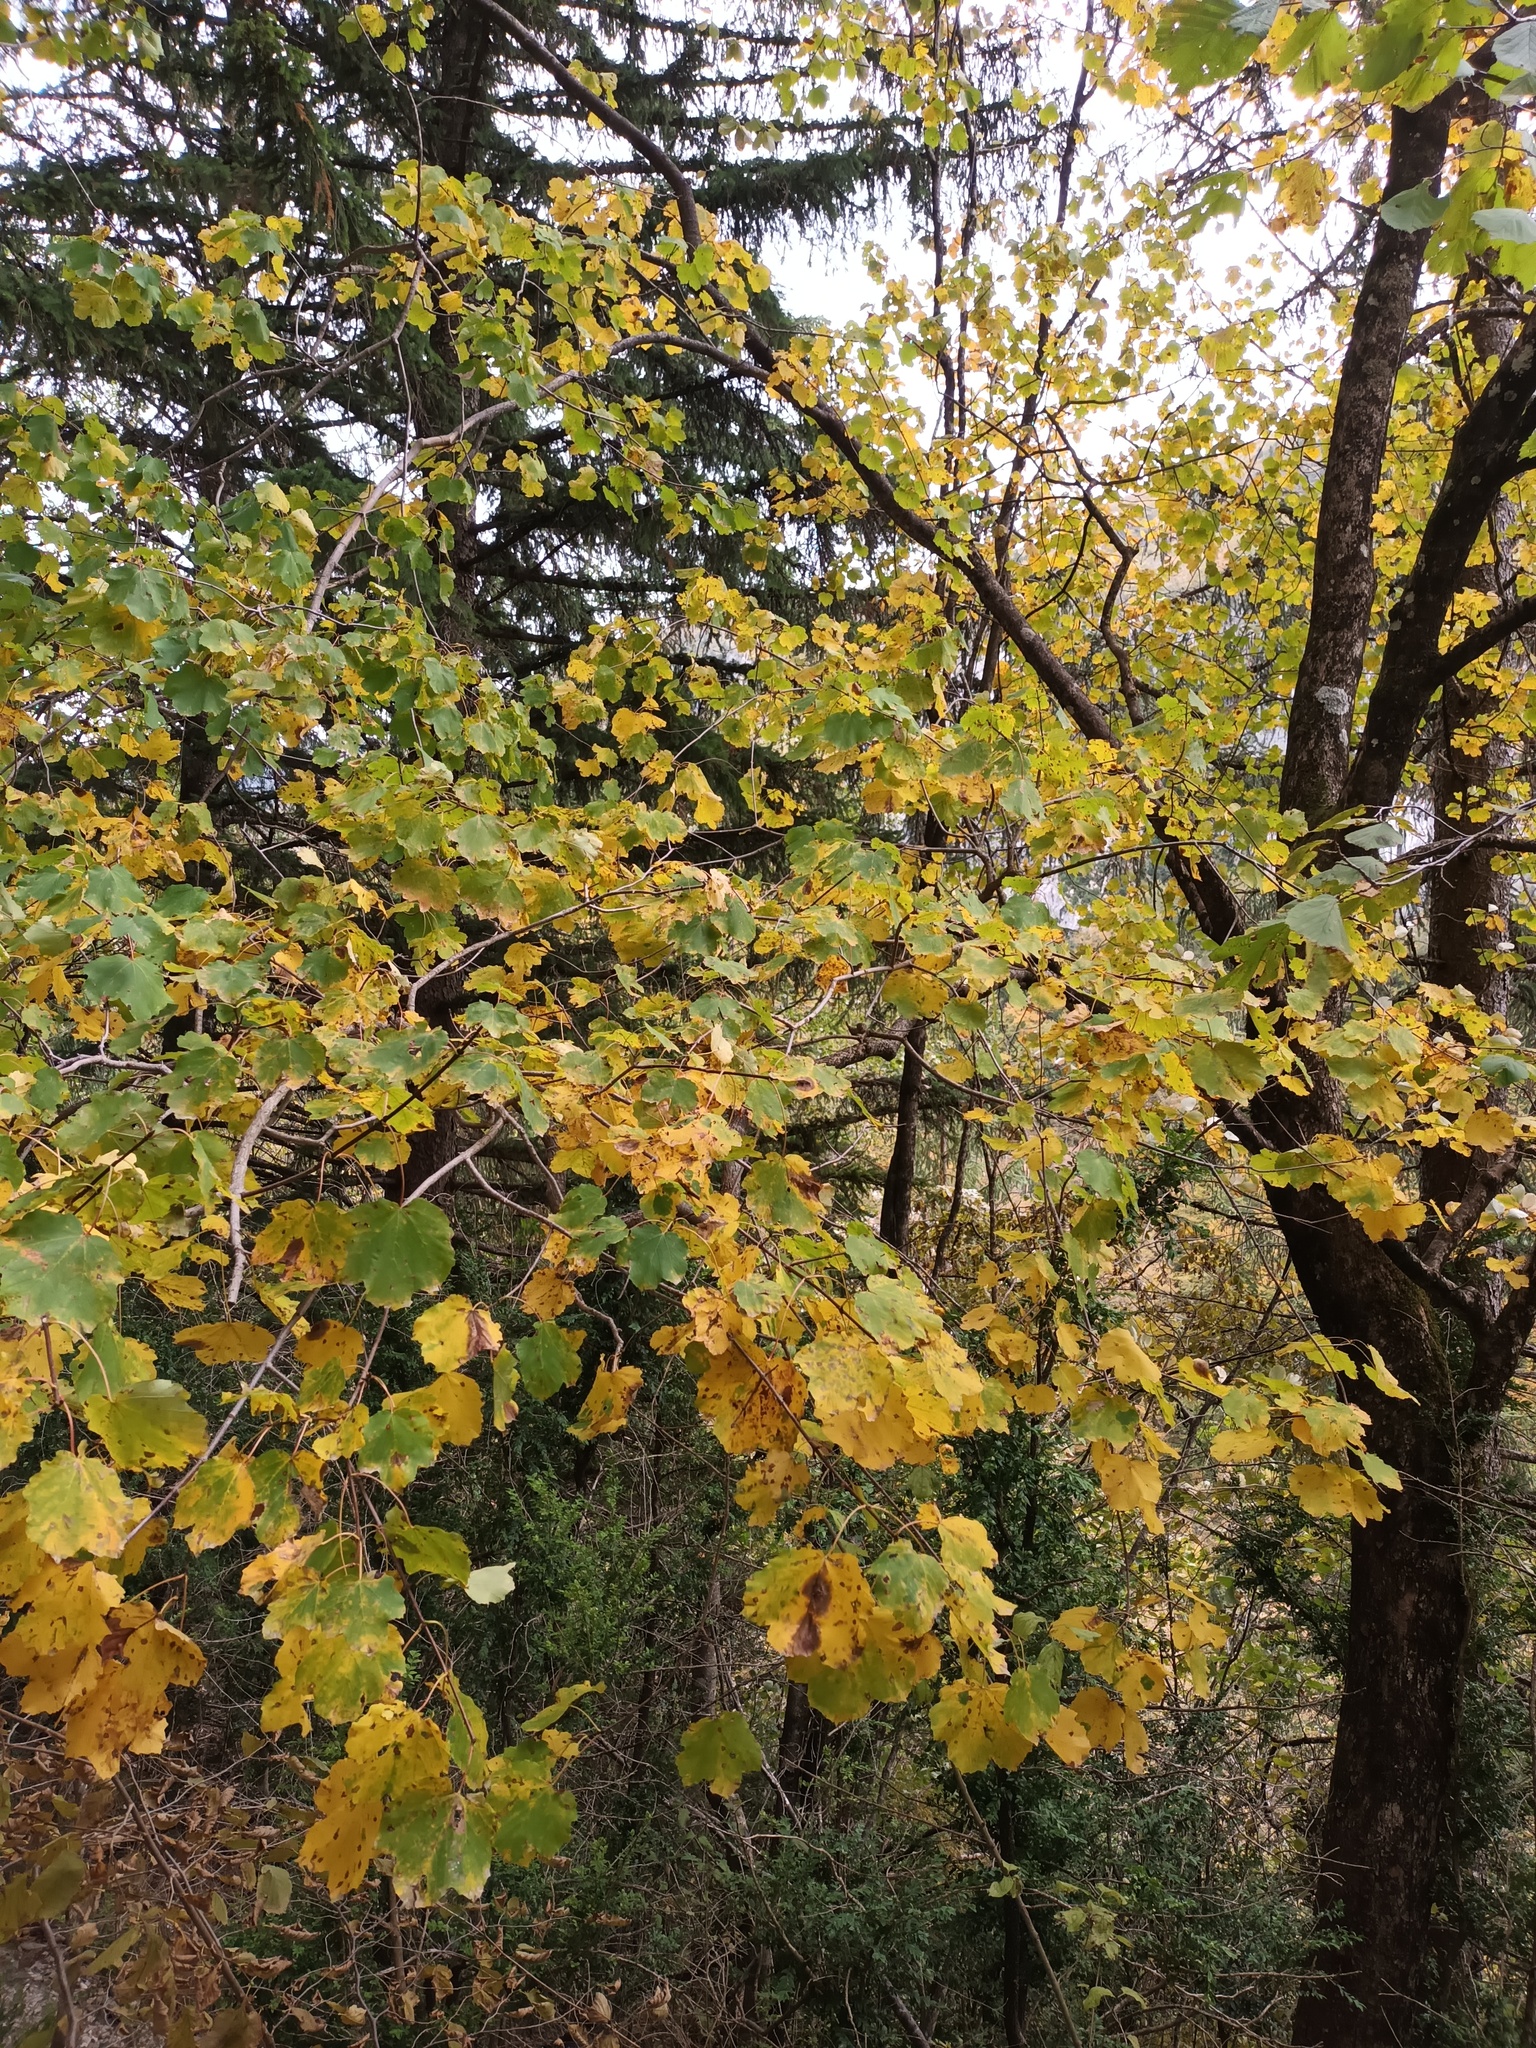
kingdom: Plantae
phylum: Tracheophyta
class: Magnoliopsida
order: Sapindales
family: Sapindaceae
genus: Acer
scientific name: Acer opalus
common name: Italian maple
